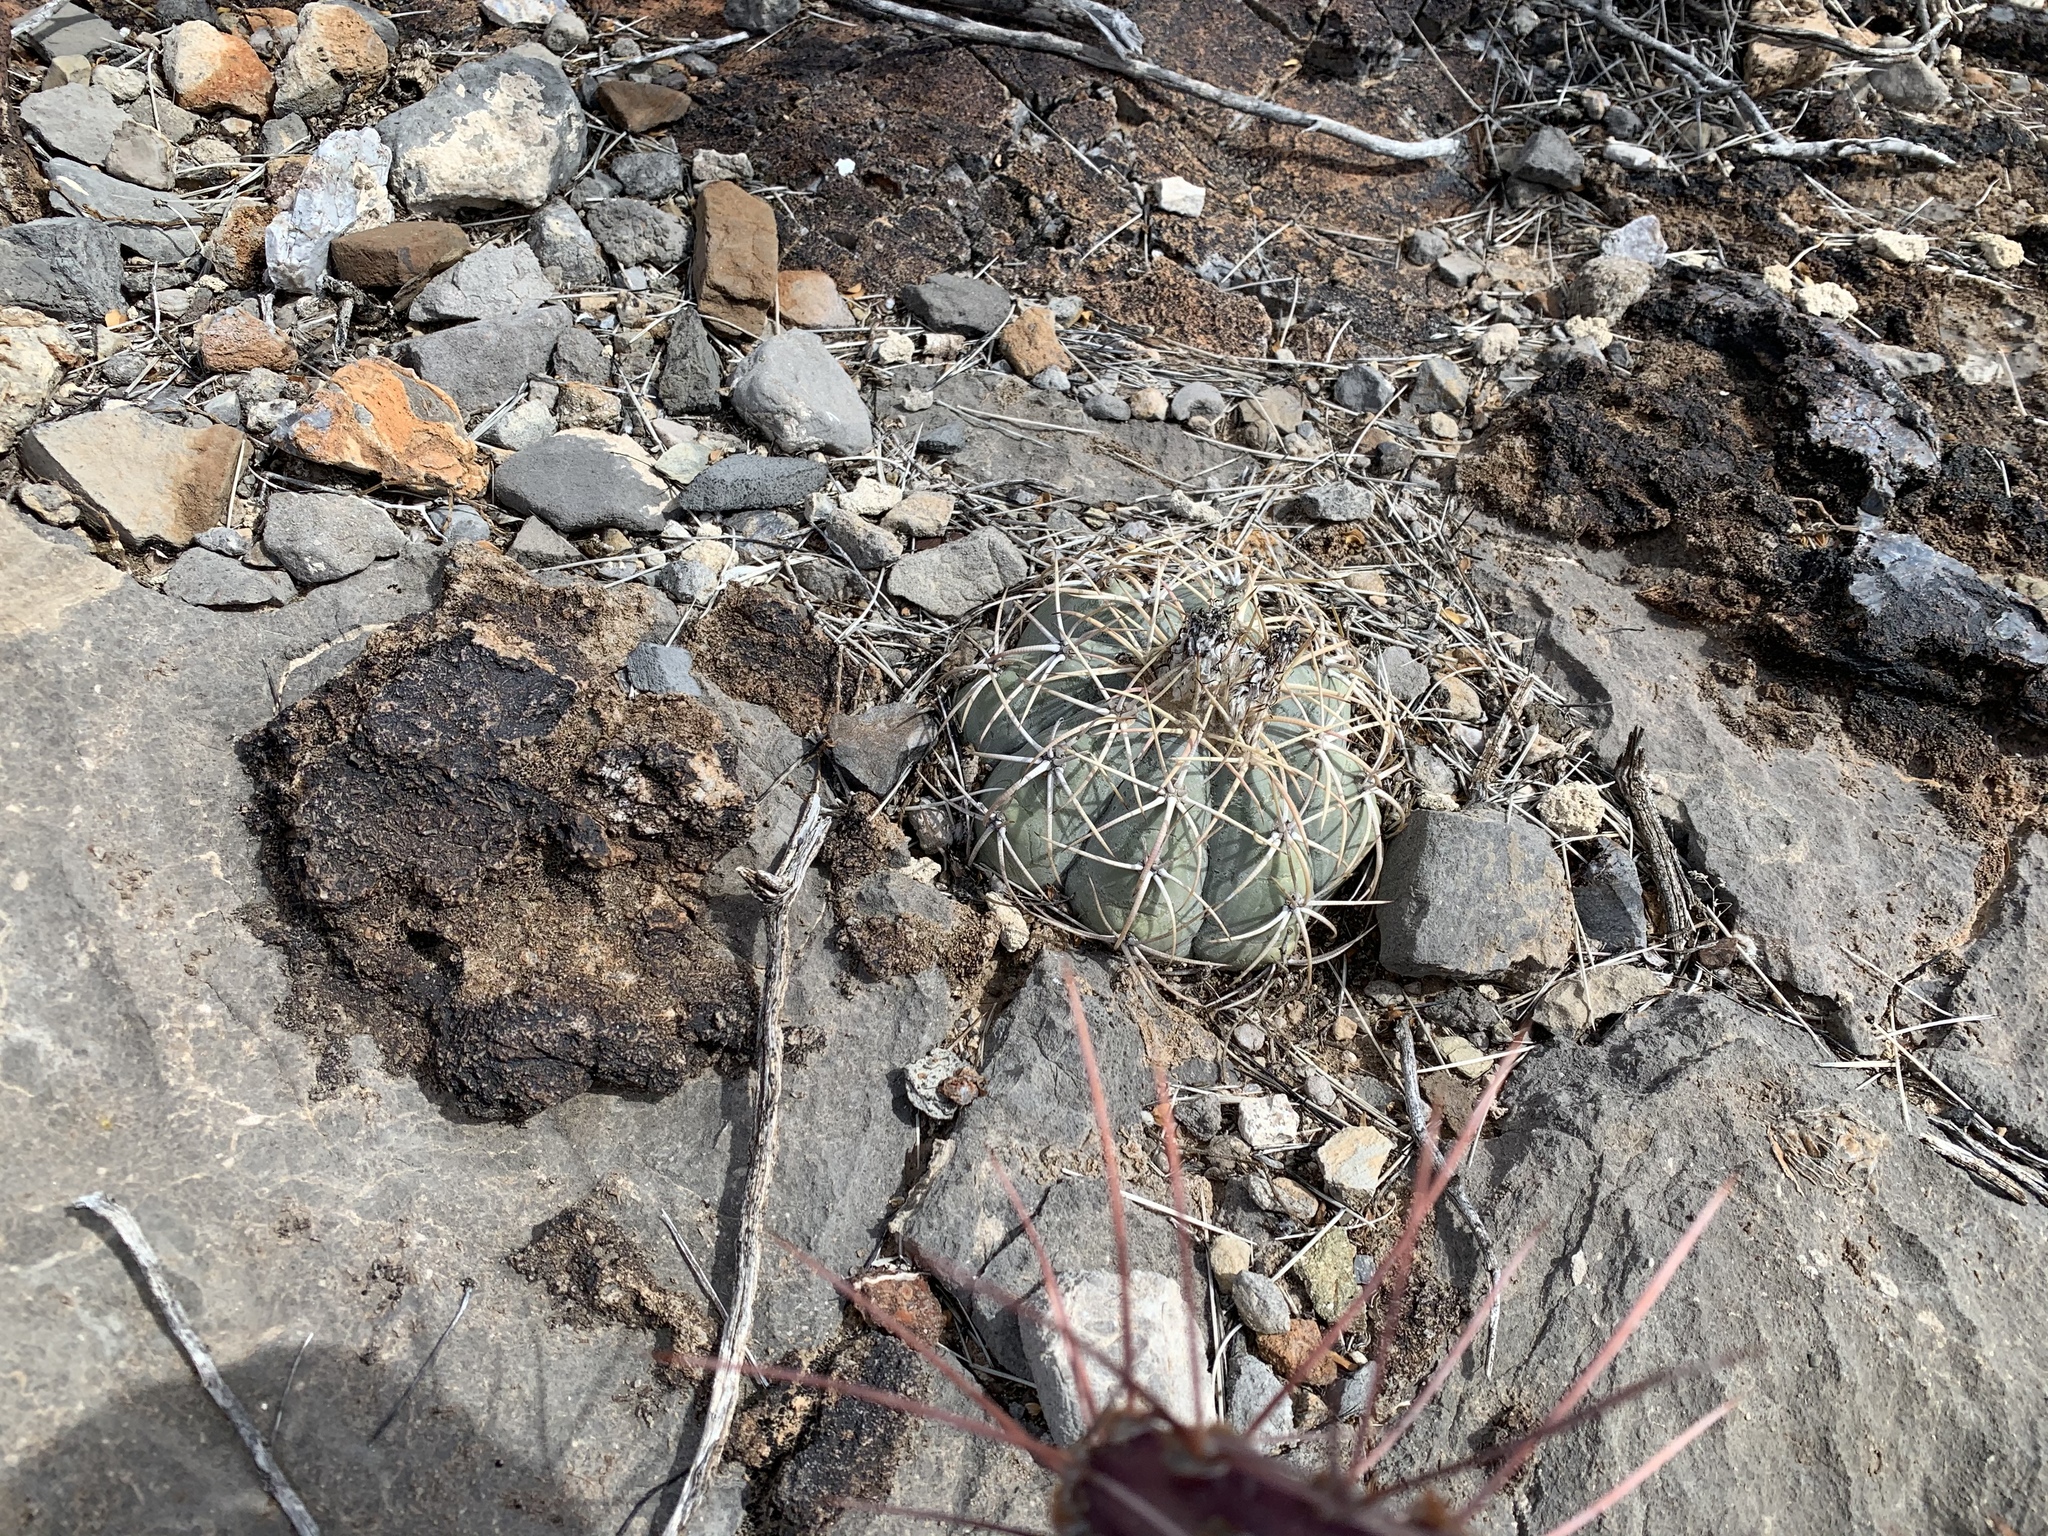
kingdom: Plantae
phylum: Tracheophyta
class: Magnoliopsida
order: Caryophyllales
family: Cactaceae
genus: Echinocactus
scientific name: Echinocactus horizonthalonius
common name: Devilshead
